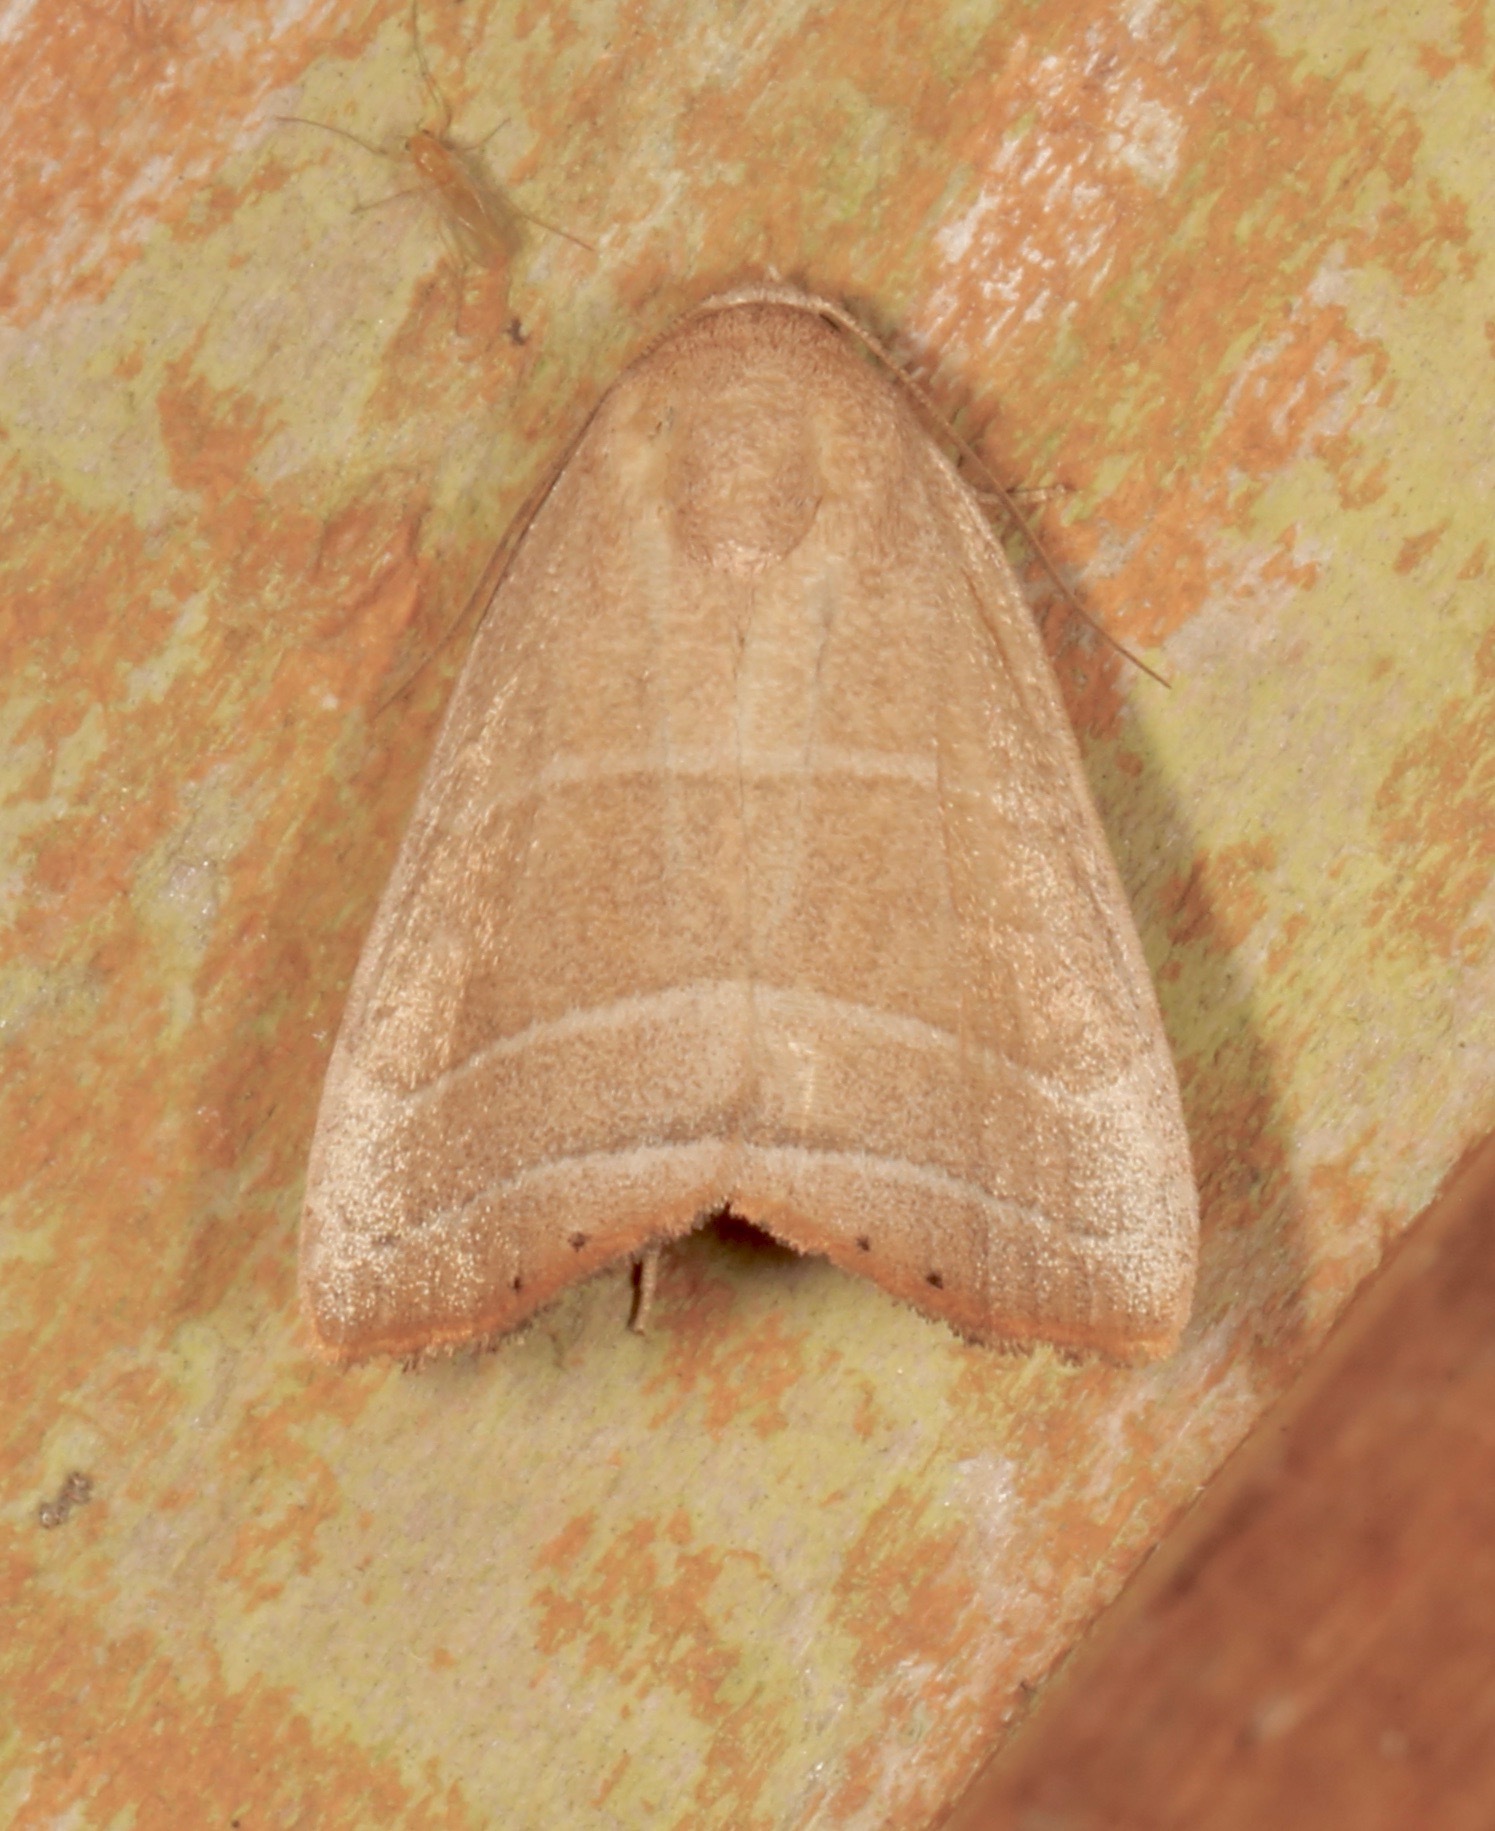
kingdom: Animalia
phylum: Arthropoda
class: Insecta
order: Lepidoptera
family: Noctuidae
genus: Bagisara
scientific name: Bagisara rectifascia
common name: Straight lined mallow moth
